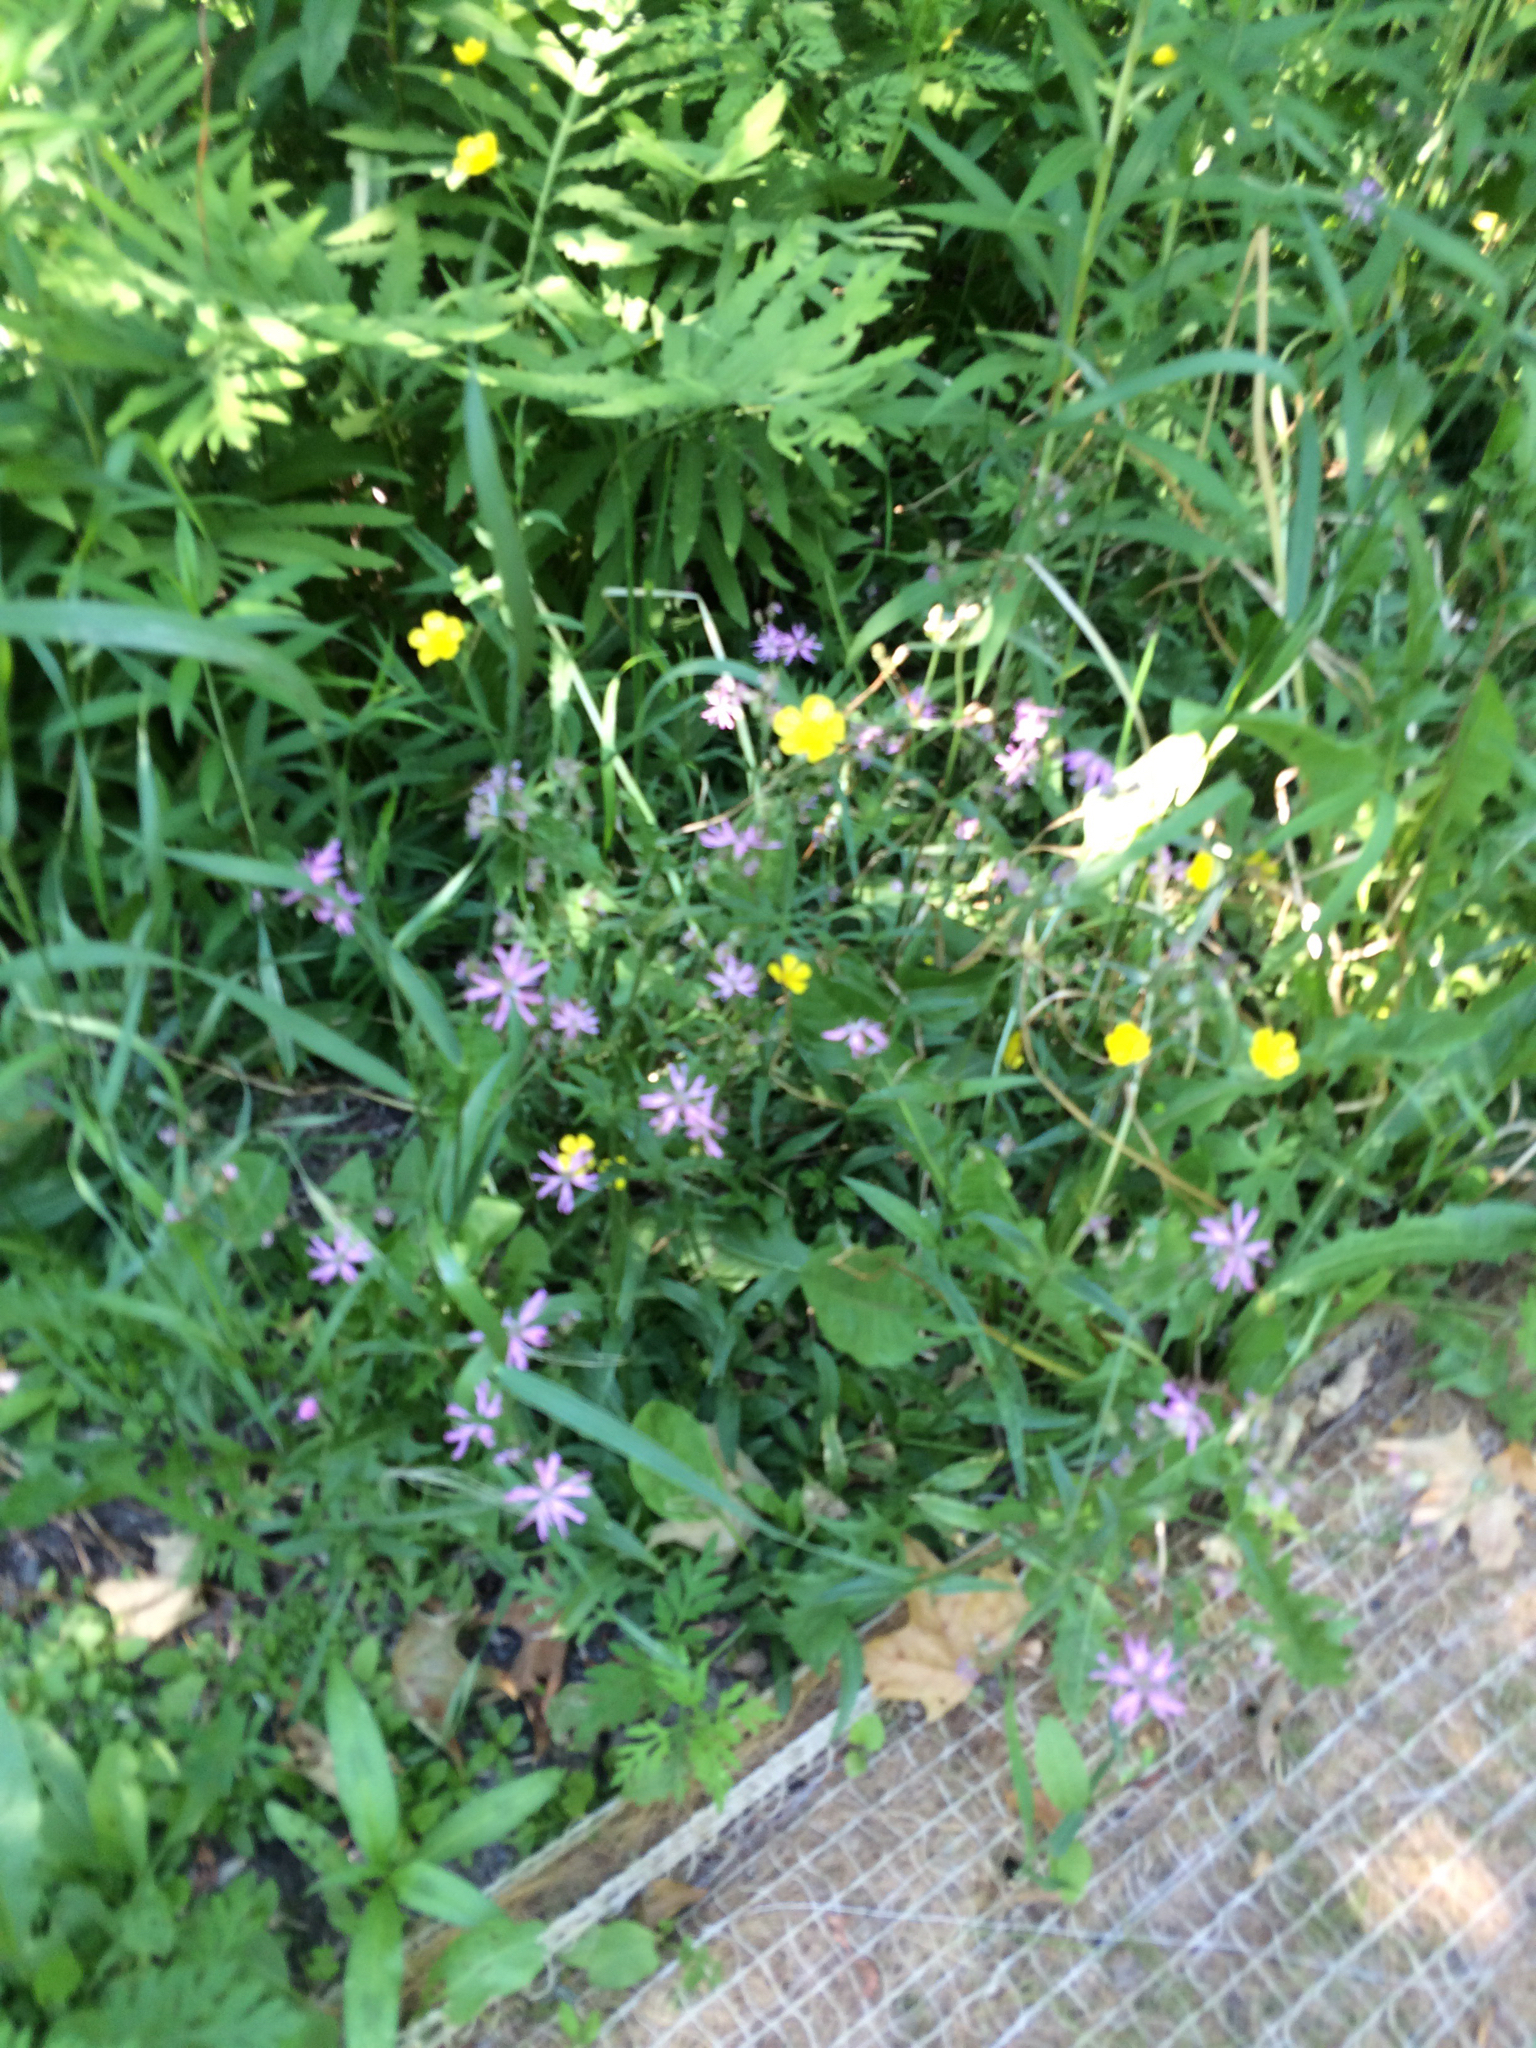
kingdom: Plantae
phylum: Tracheophyta
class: Magnoliopsida
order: Caryophyllales
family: Caryophyllaceae
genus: Silene
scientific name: Silene flos-cuculi
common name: Ragged-robin
